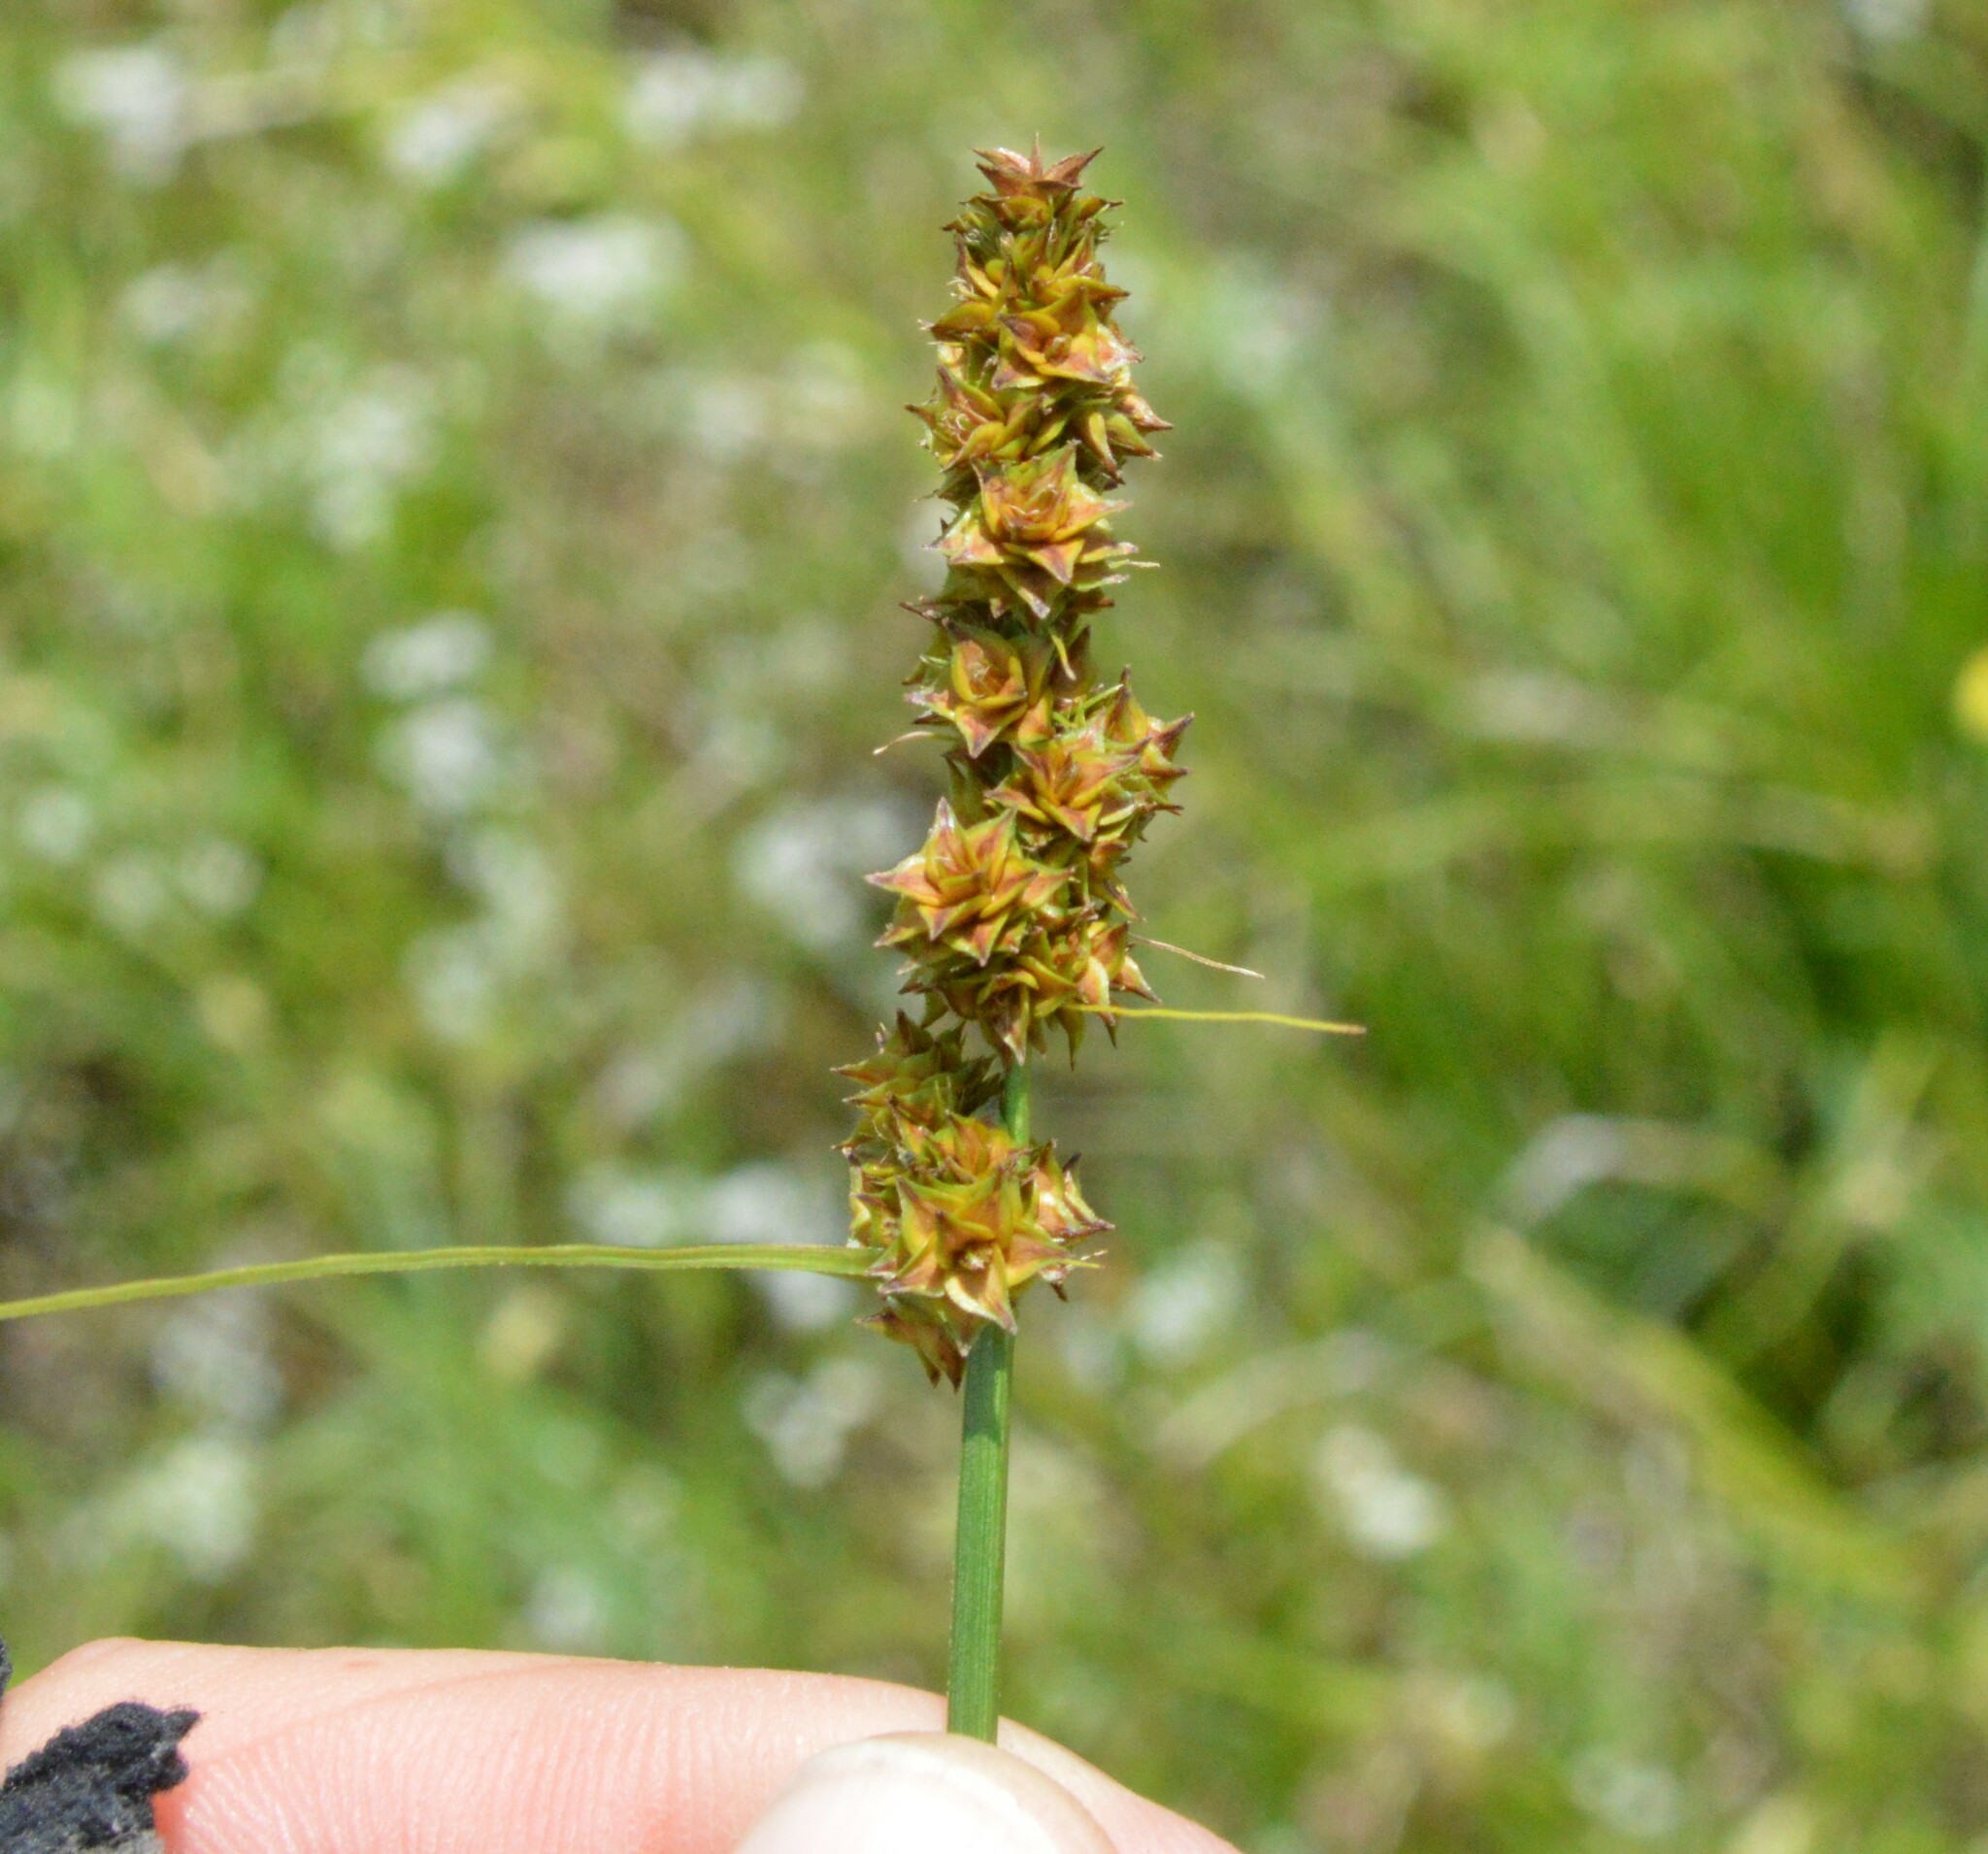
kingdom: Plantae
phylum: Tracheophyta
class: Liliopsida
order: Poales
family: Cyperaceae
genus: Carex
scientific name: Carex triangularis
